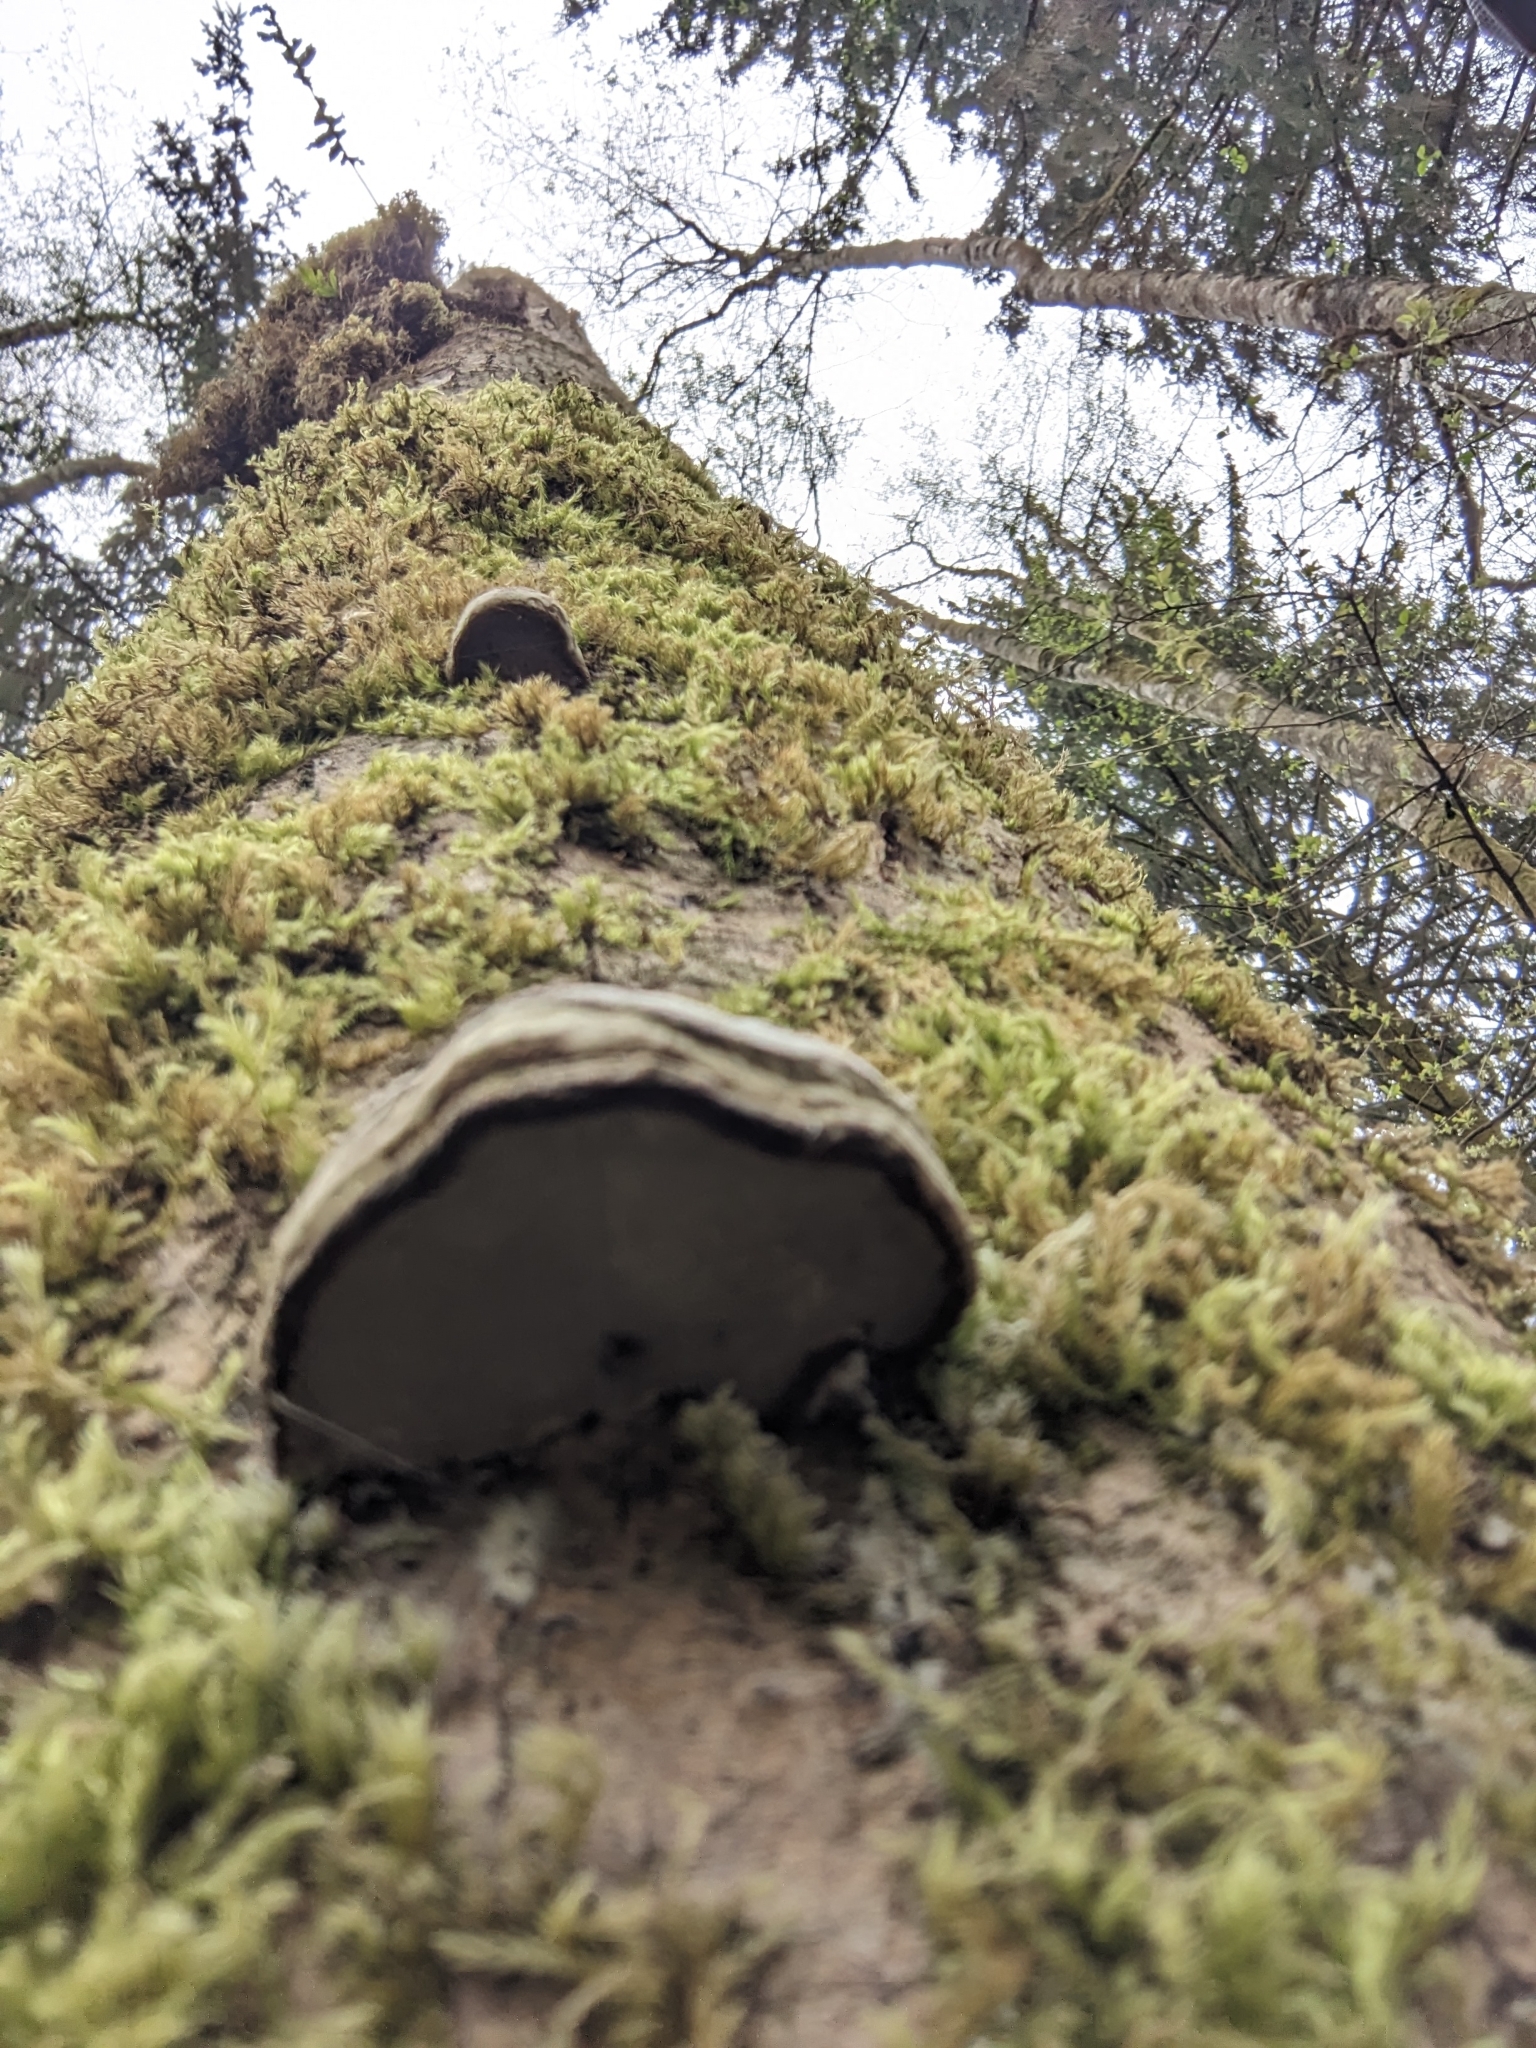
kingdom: Fungi
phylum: Basidiomycota
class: Agaricomycetes
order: Polyporales
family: Polyporaceae
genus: Fomes
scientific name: Fomes fomentarius
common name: Hoof fungus
